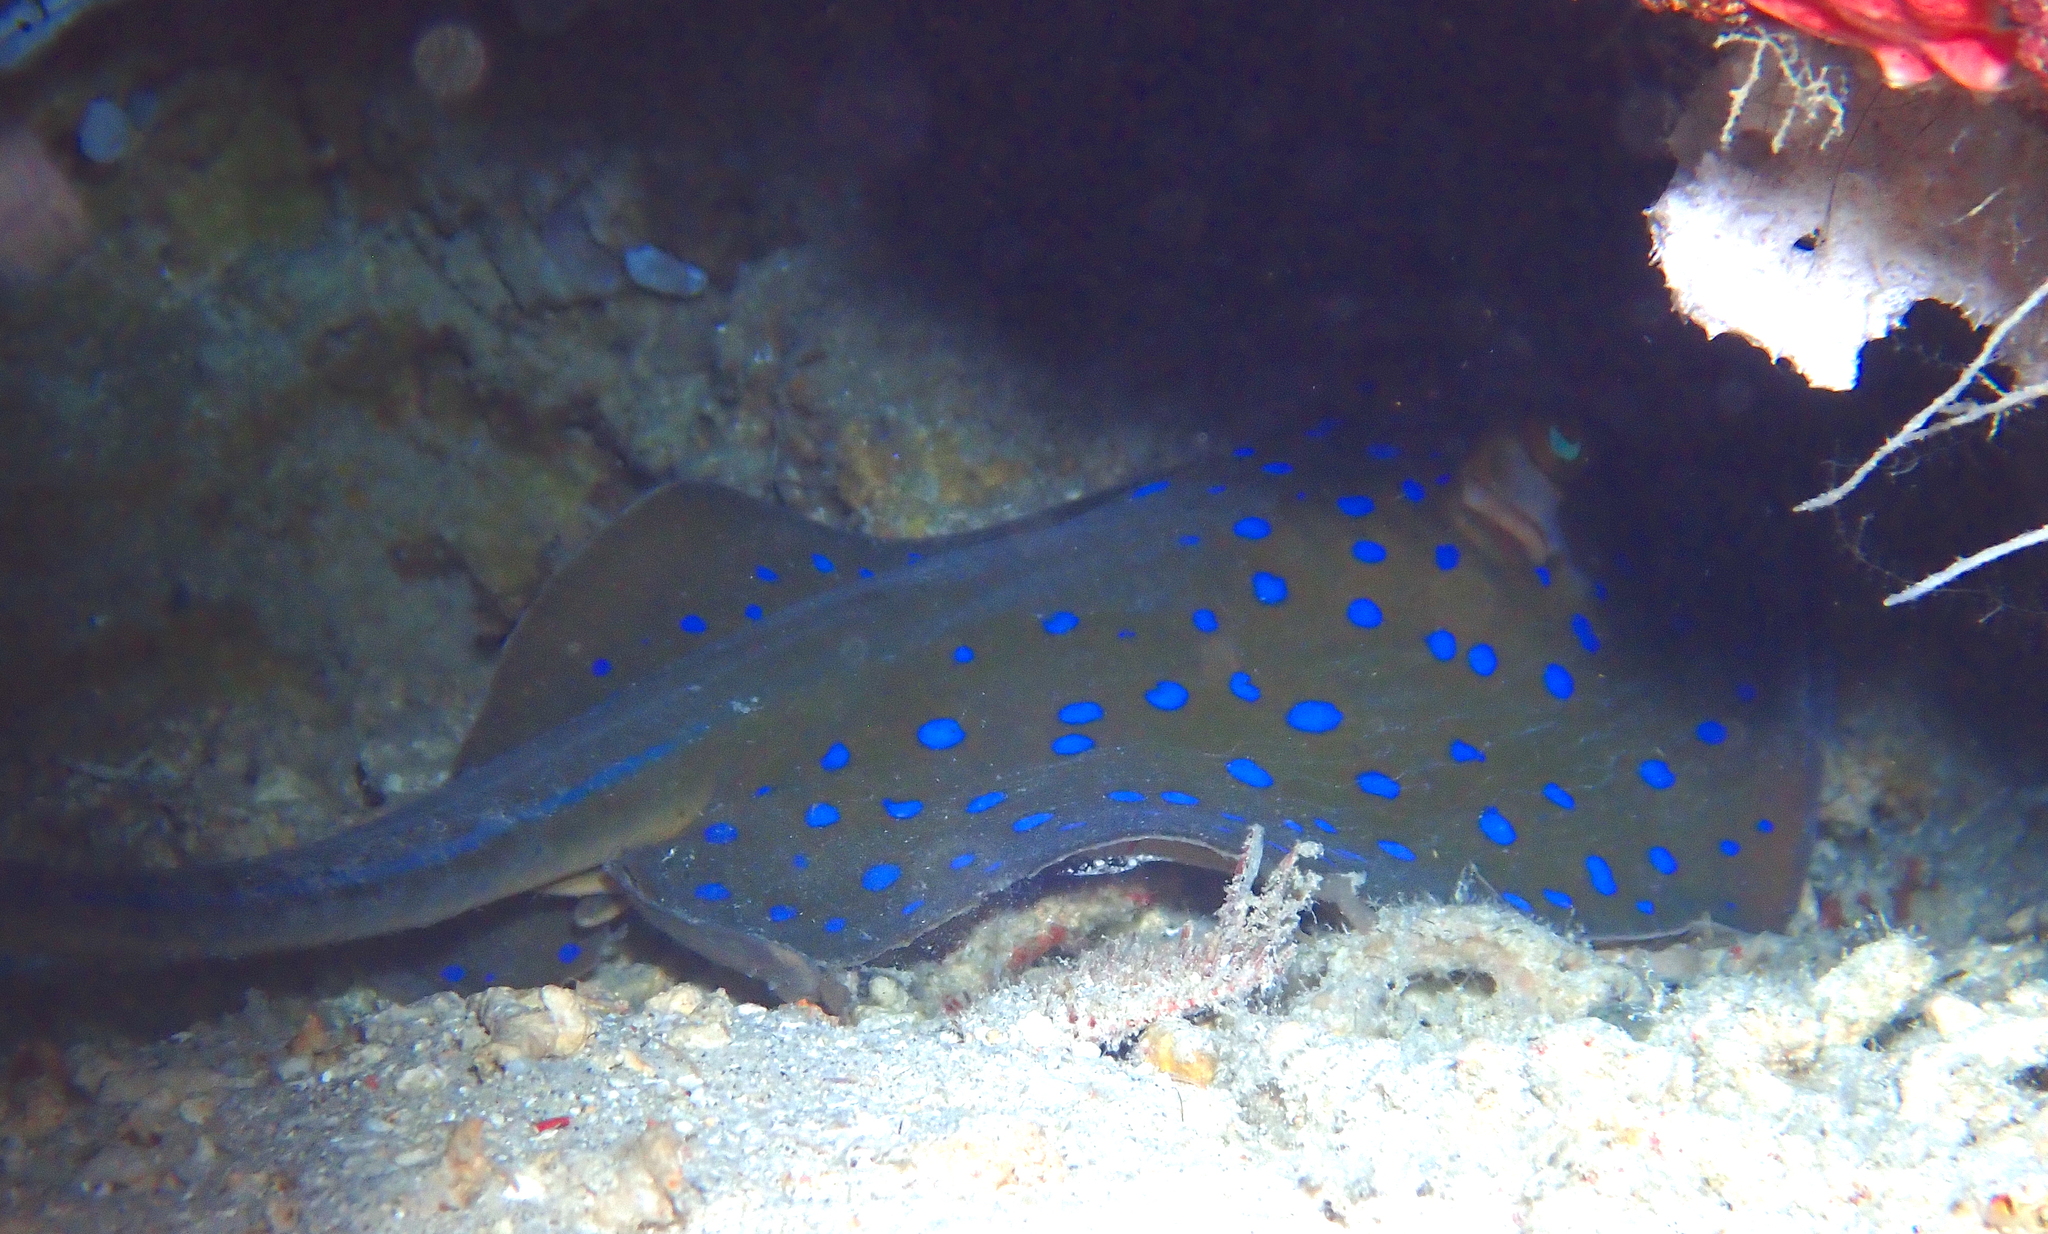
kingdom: Animalia
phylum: Chordata
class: Elasmobranchii
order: Myliobatiformes
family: Dasyatidae
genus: Taeniura
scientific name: Taeniura lymma
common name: Bluespotted ribbontail ray
